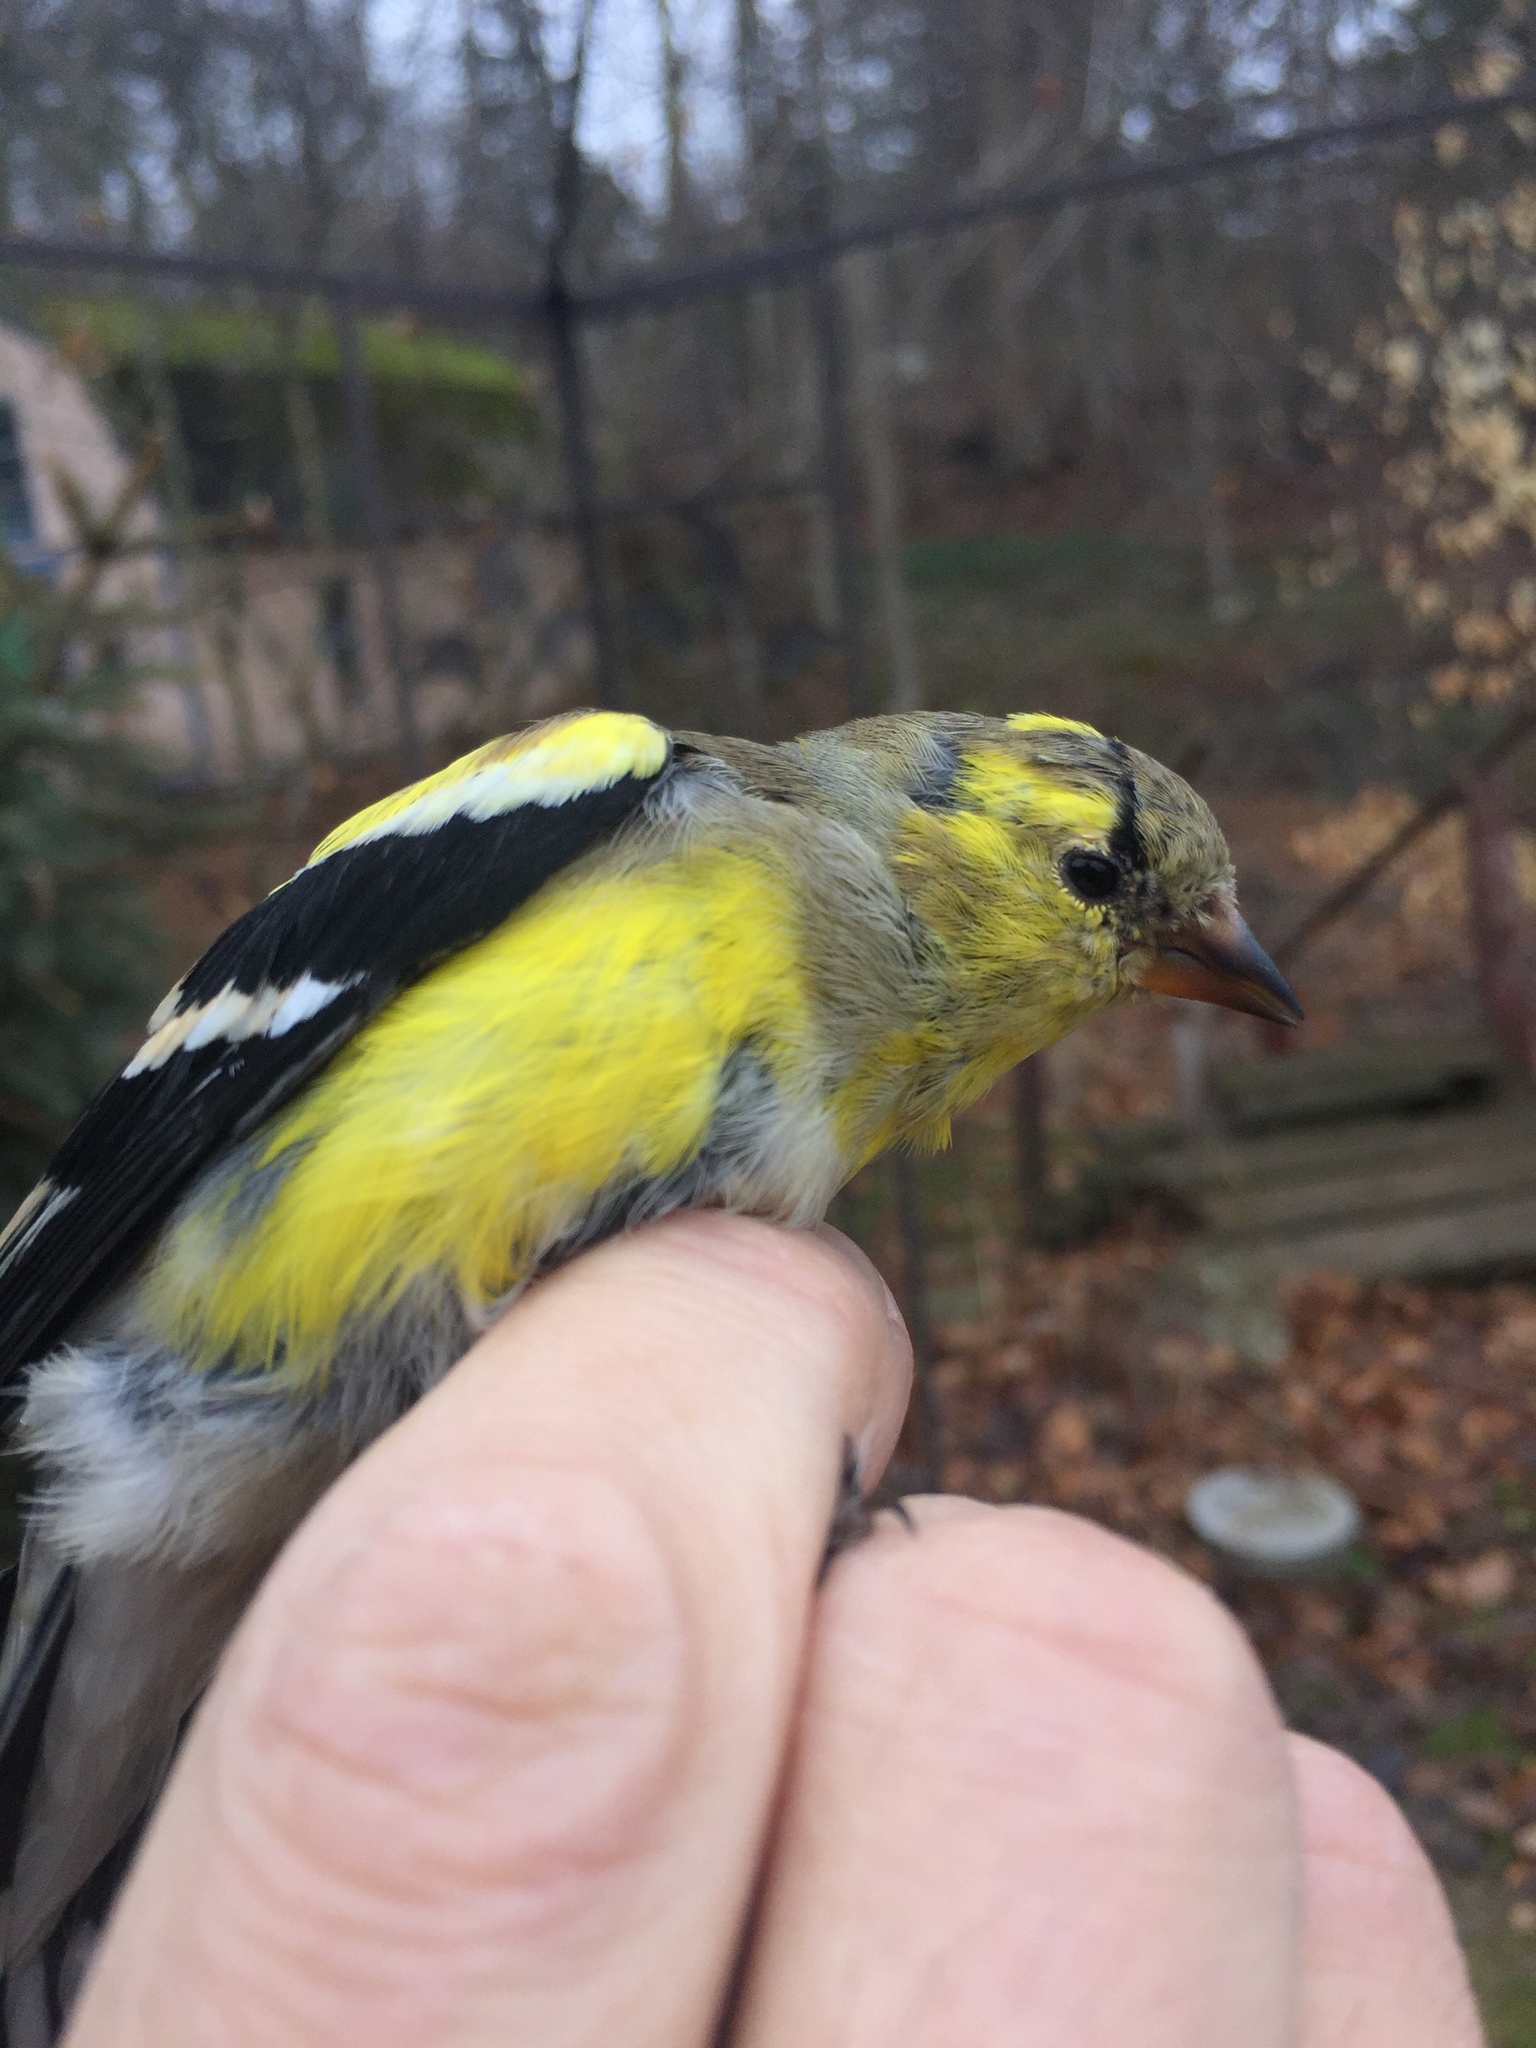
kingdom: Animalia
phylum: Chordata
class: Aves
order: Passeriformes
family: Fringillidae
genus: Spinus
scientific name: Spinus tristis
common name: American goldfinch
